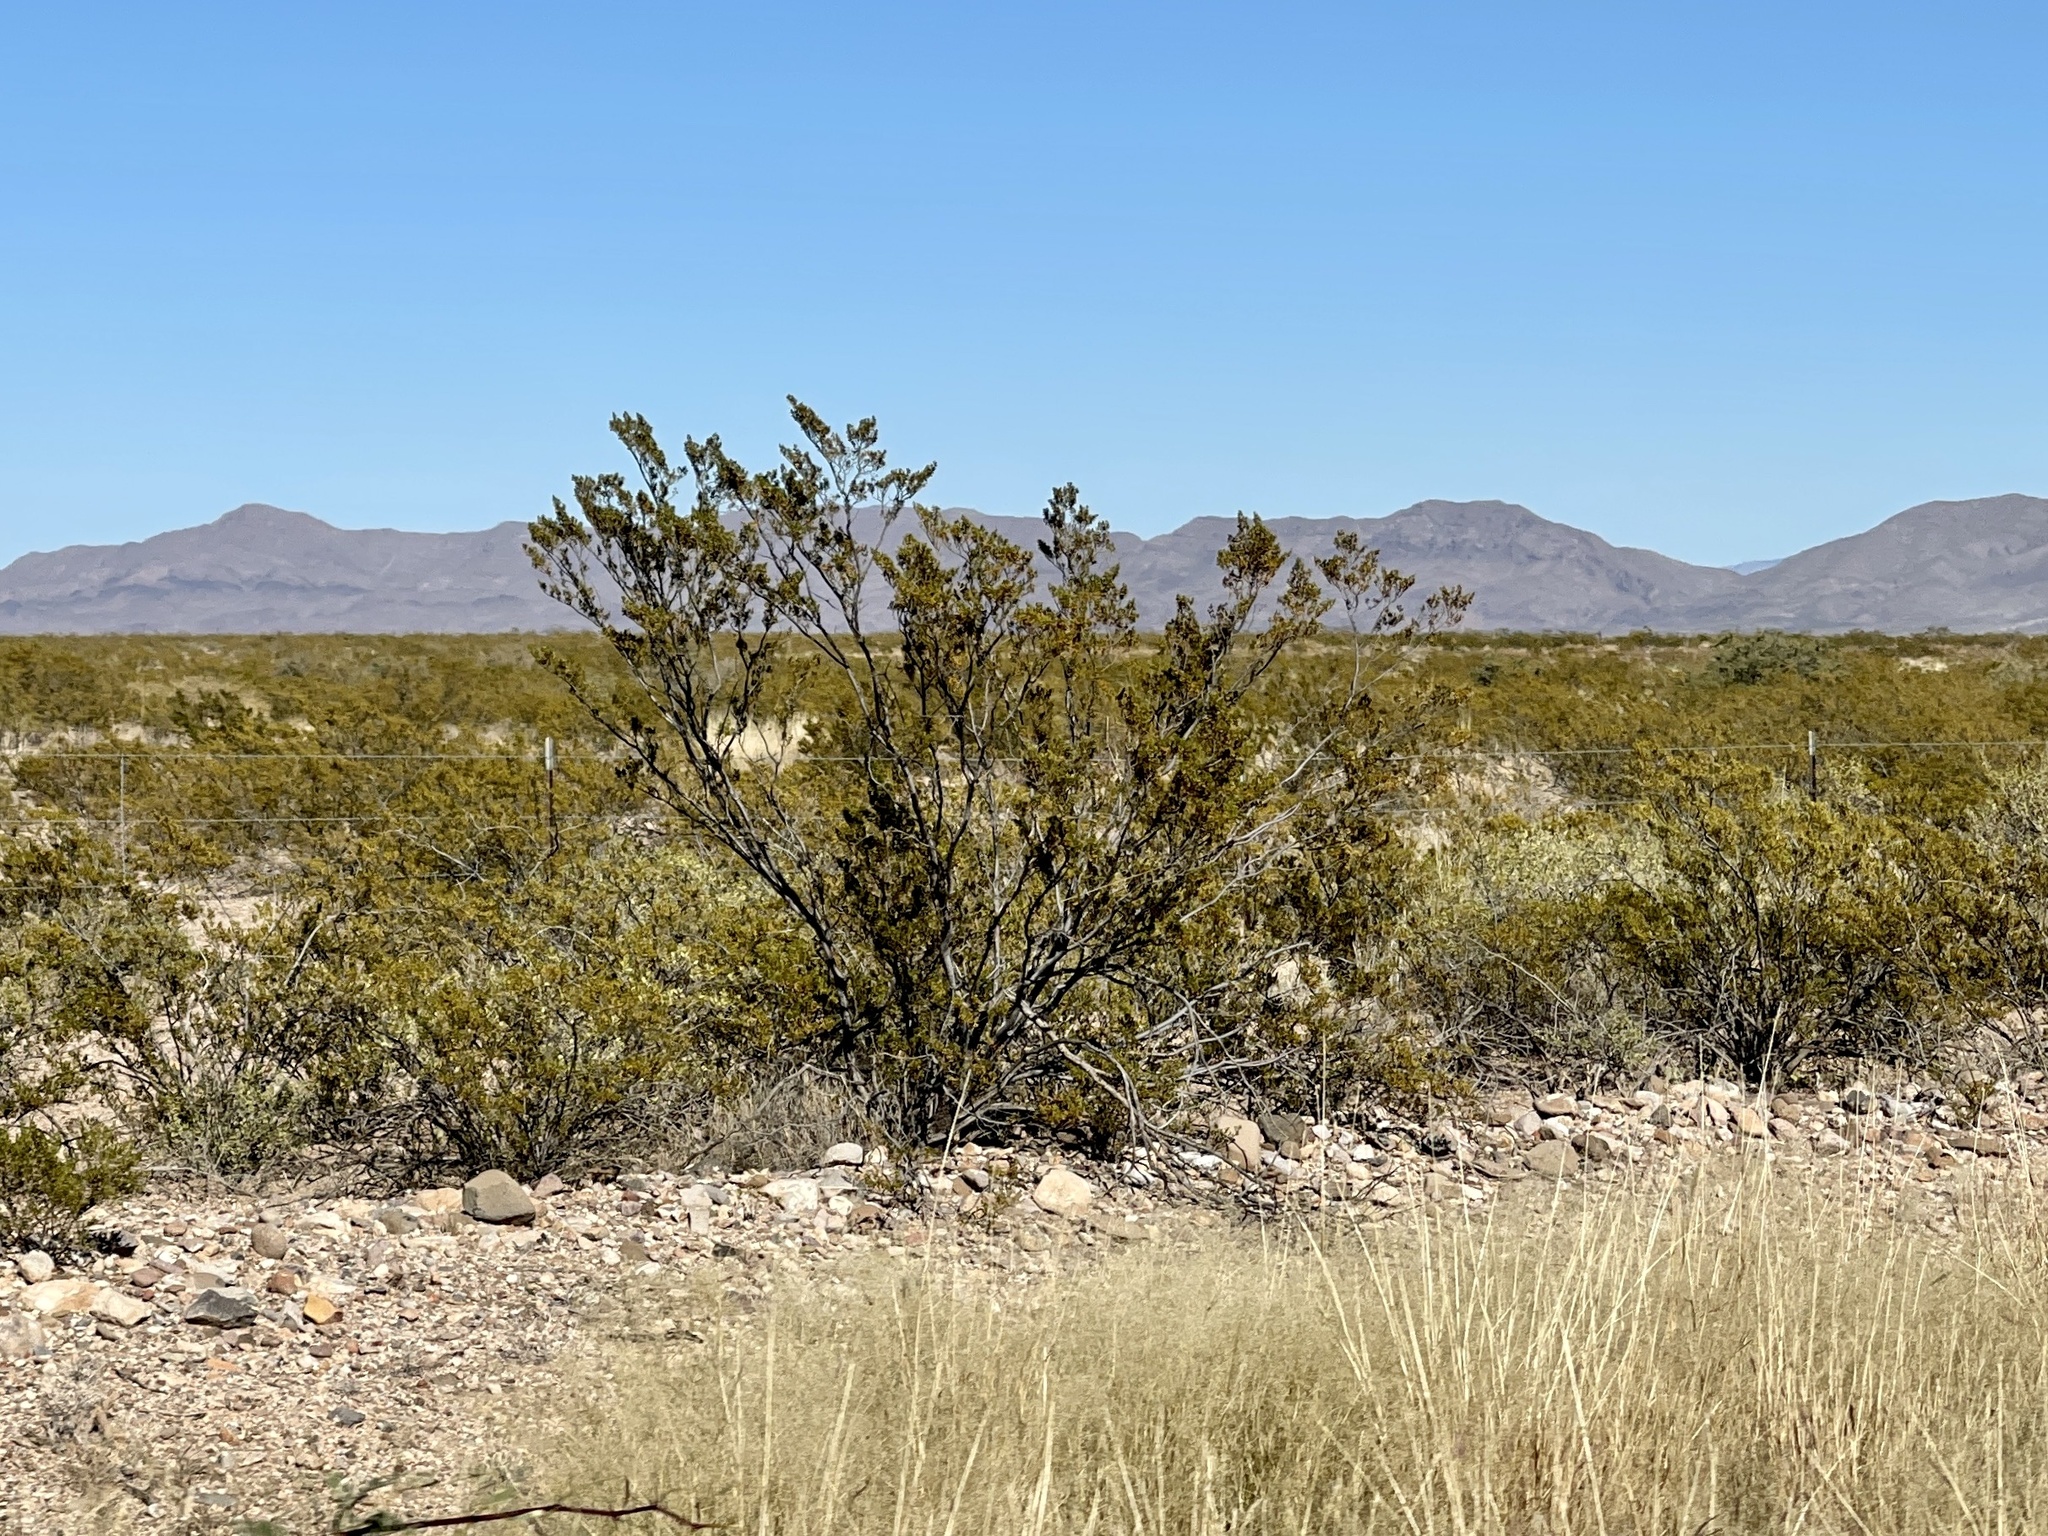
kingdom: Plantae
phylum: Tracheophyta
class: Magnoliopsida
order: Zygophyllales
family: Zygophyllaceae
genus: Larrea
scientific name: Larrea tridentata
